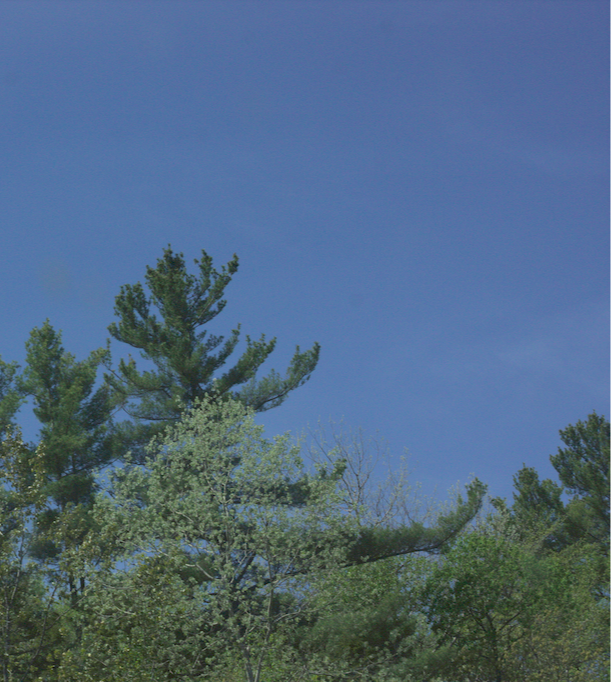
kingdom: Plantae
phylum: Tracheophyta
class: Pinopsida
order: Pinales
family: Pinaceae
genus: Pinus
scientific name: Pinus strobus
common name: Weymouth pine
